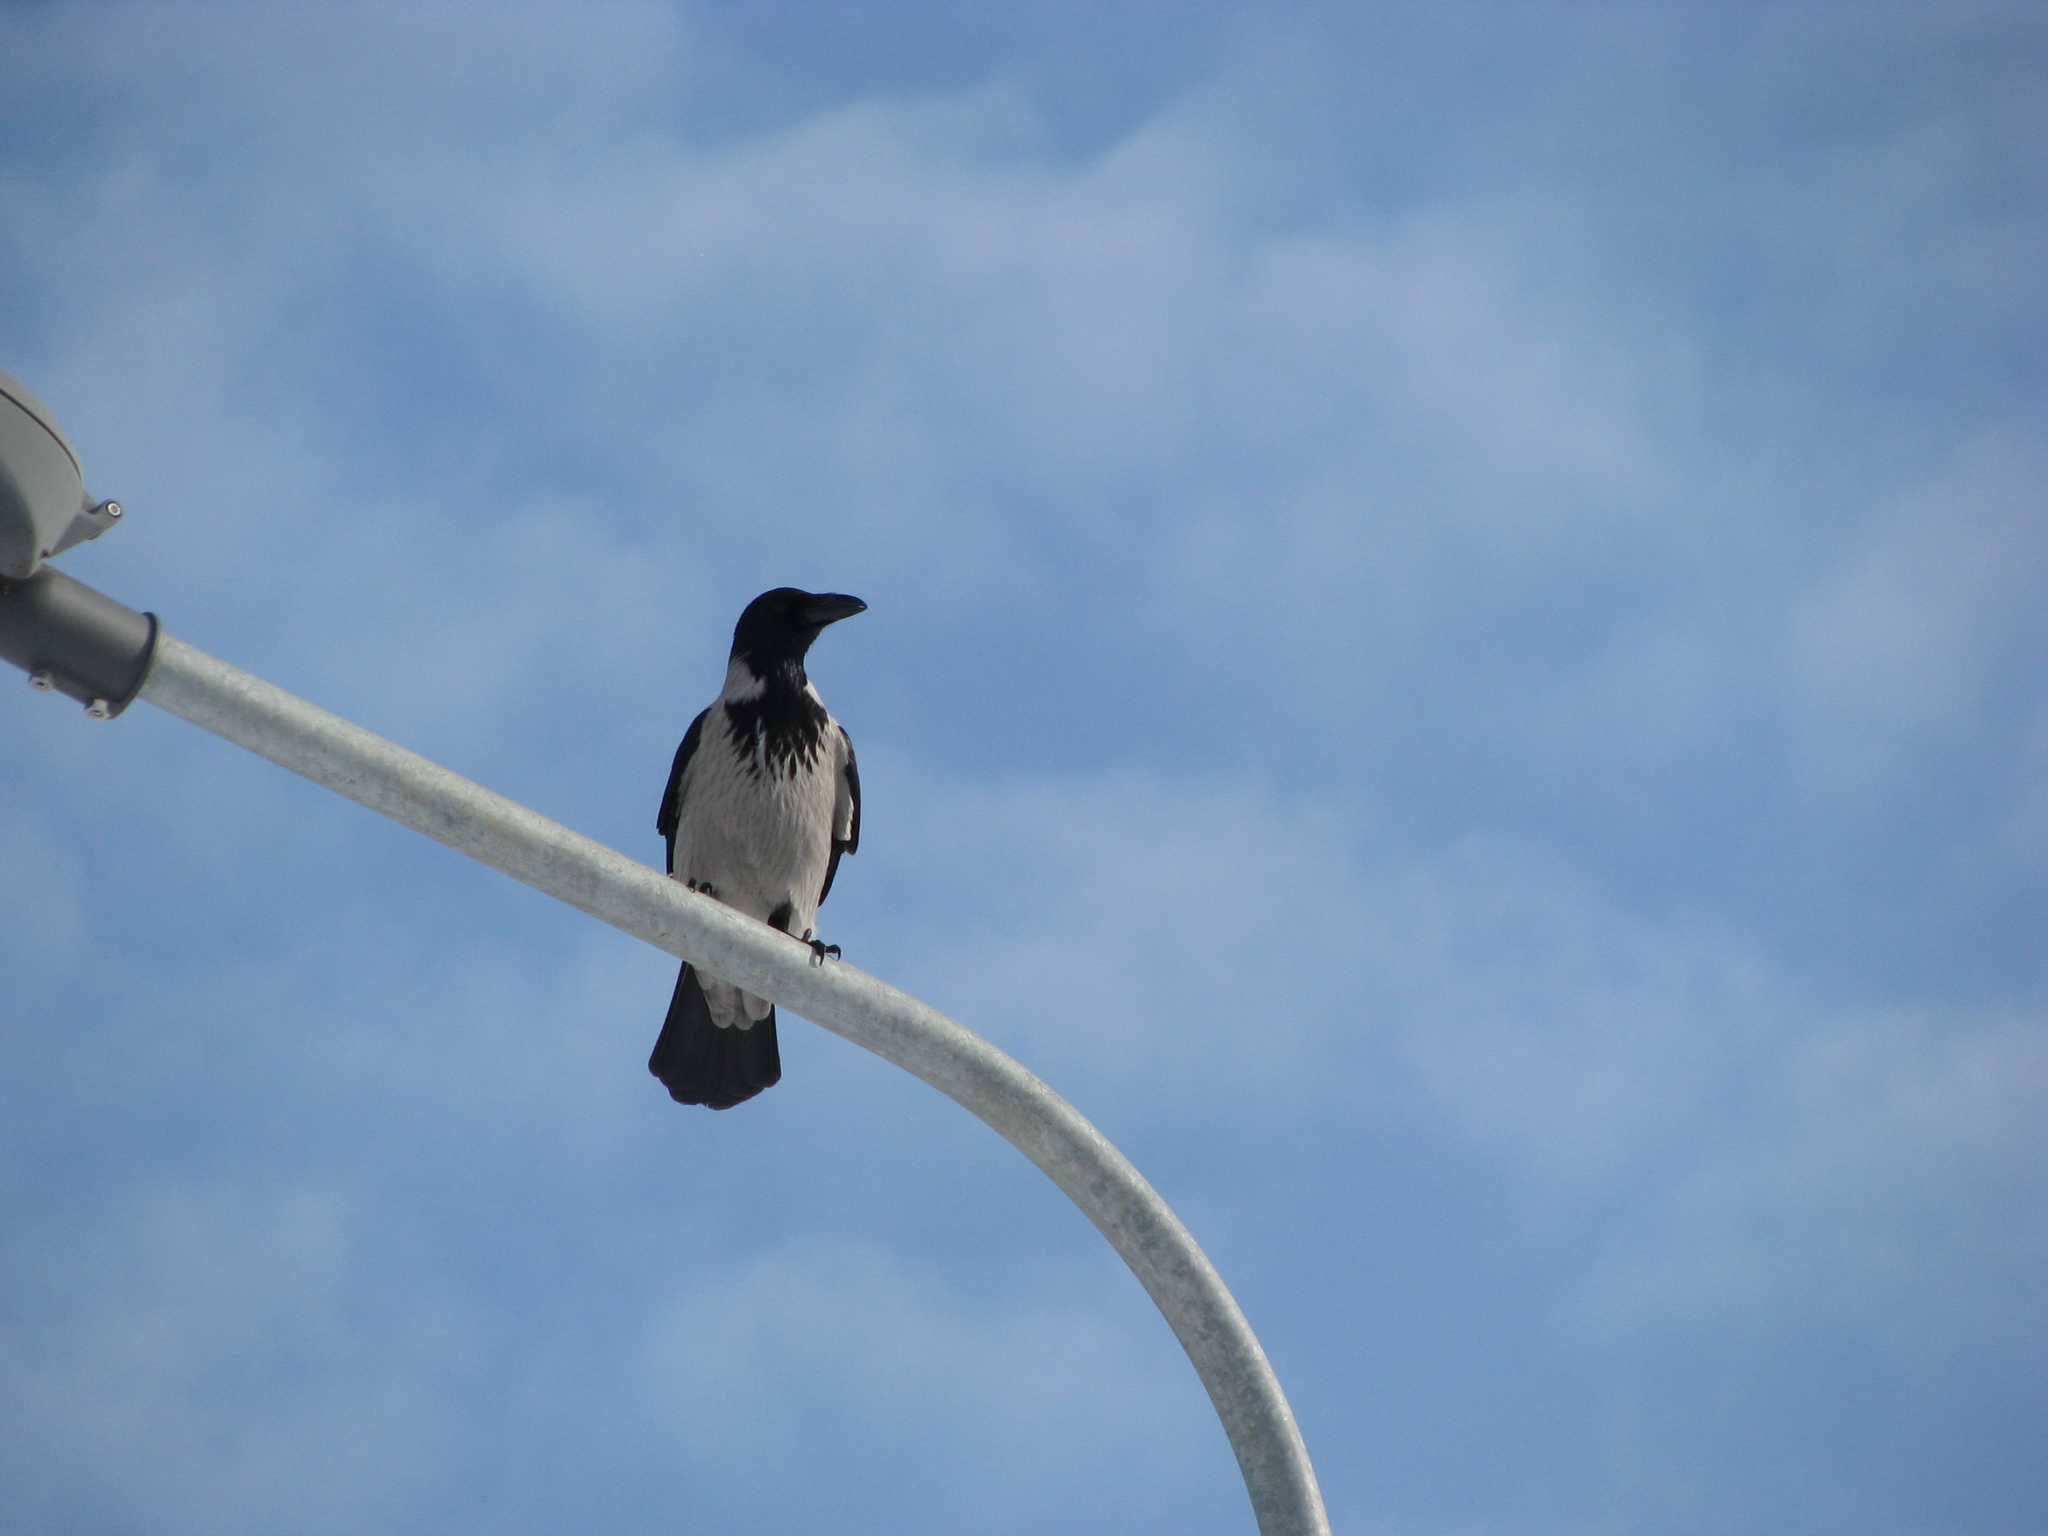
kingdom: Animalia
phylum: Chordata
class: Aves
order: Passeriformes
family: Corvidae
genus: Corvus
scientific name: Corvus cornix
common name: Hooded crow
